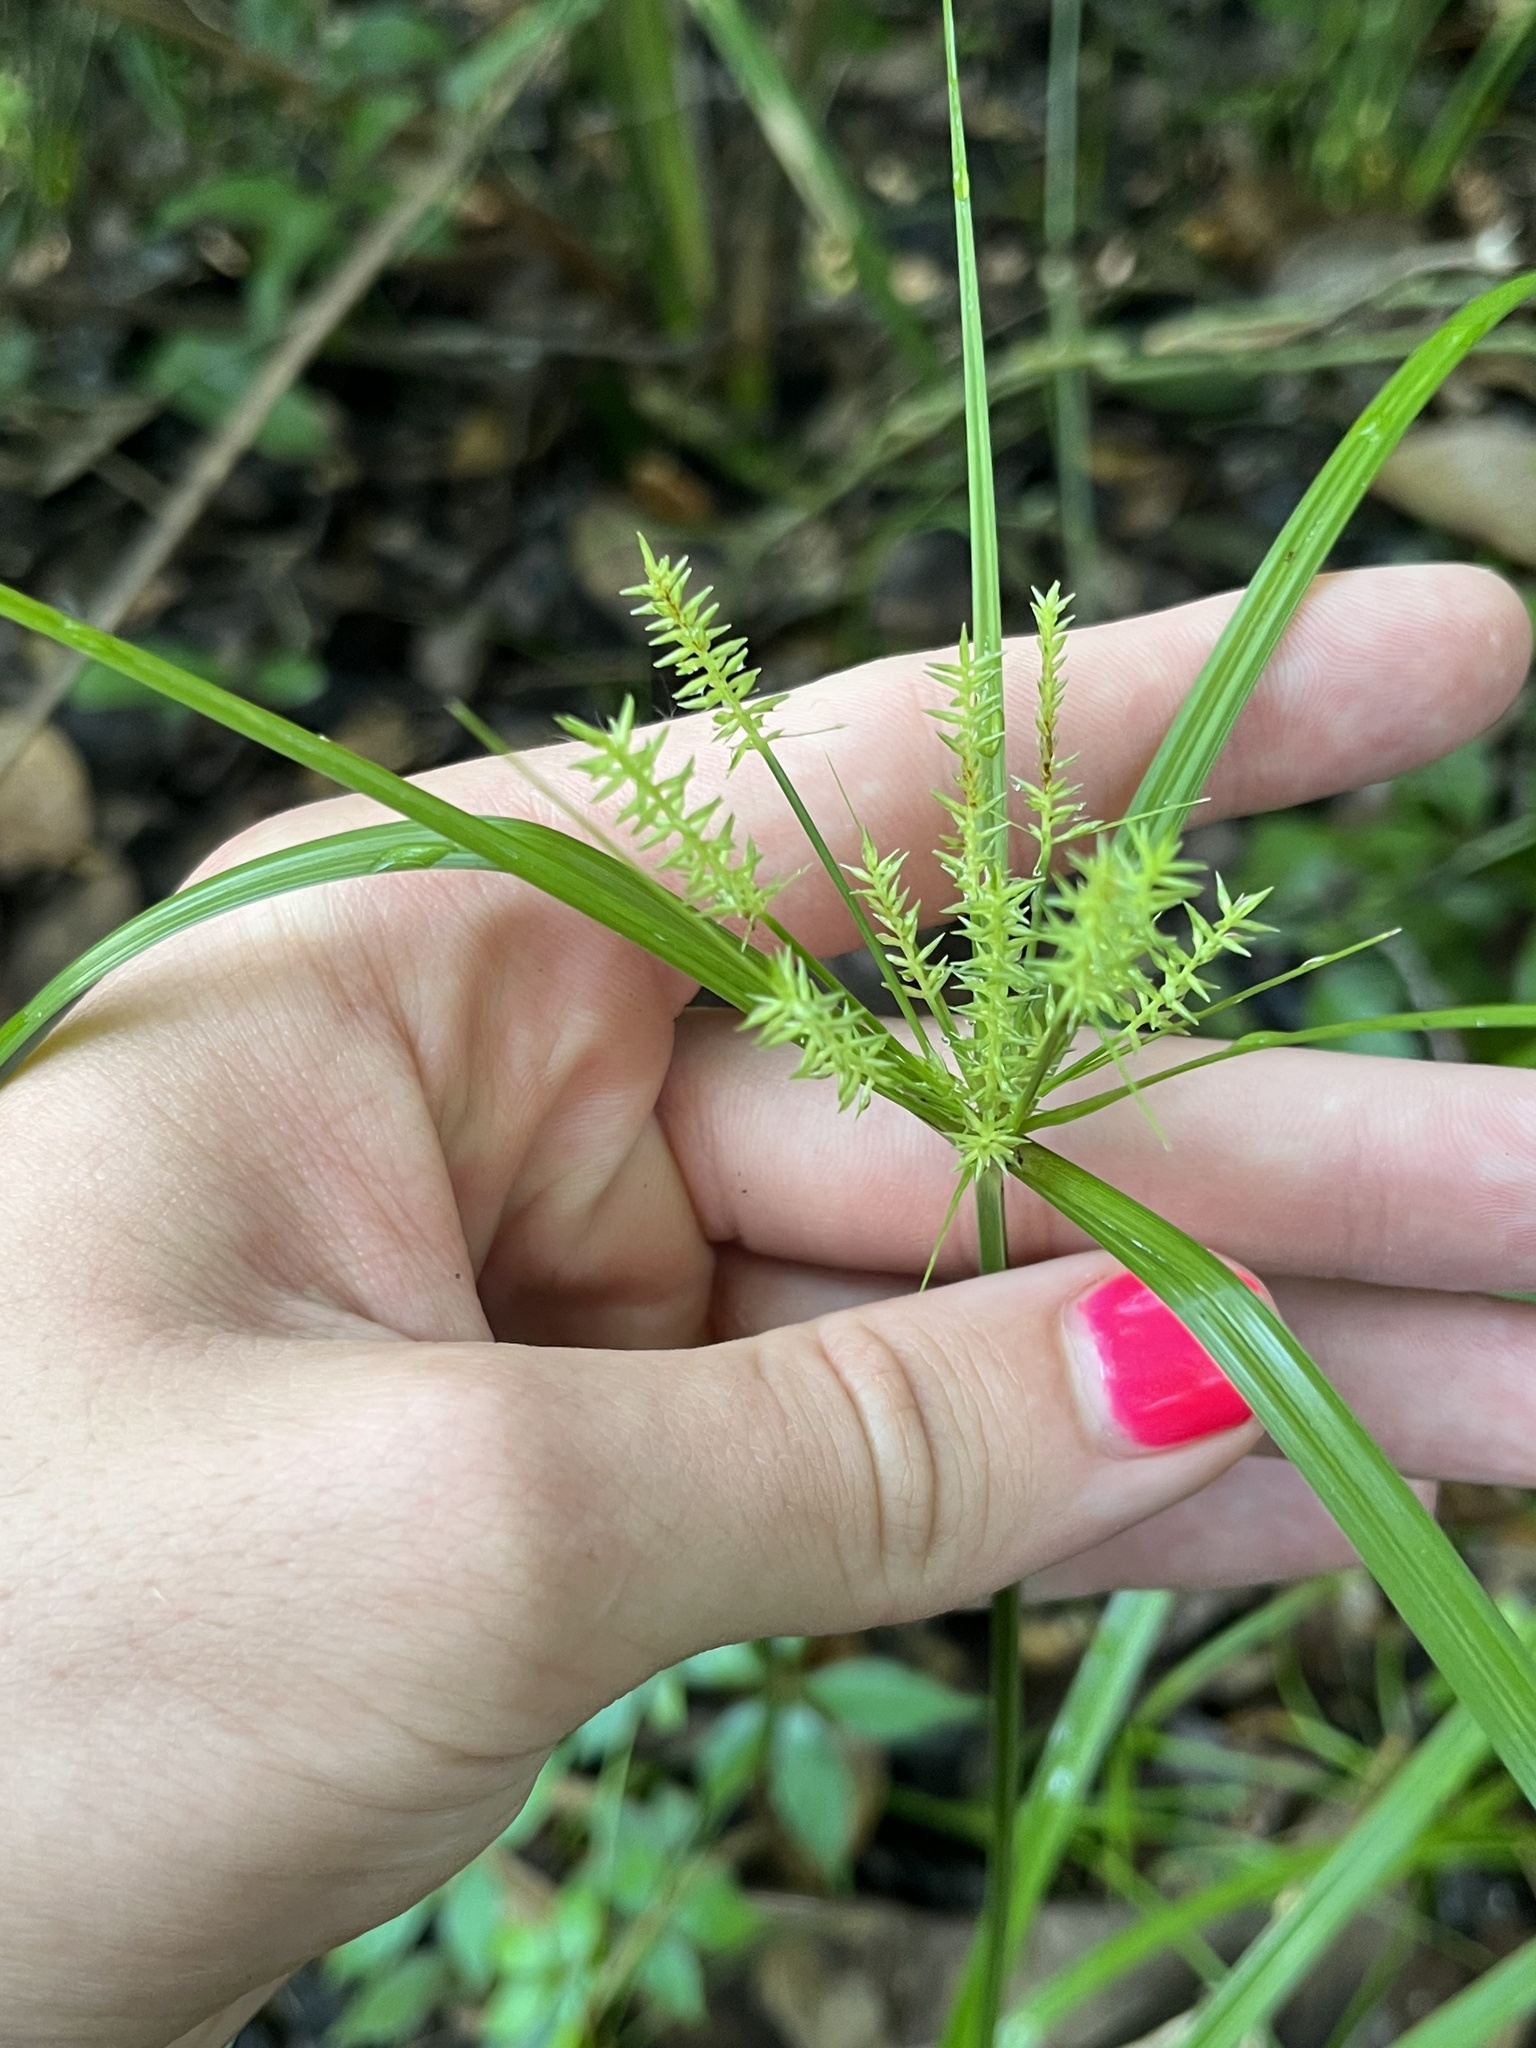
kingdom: Plantae
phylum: Tracheophyta
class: Liliopsida
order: Poales
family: Cyperaceae
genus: Cyperus
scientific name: Cyperus tetragonus
